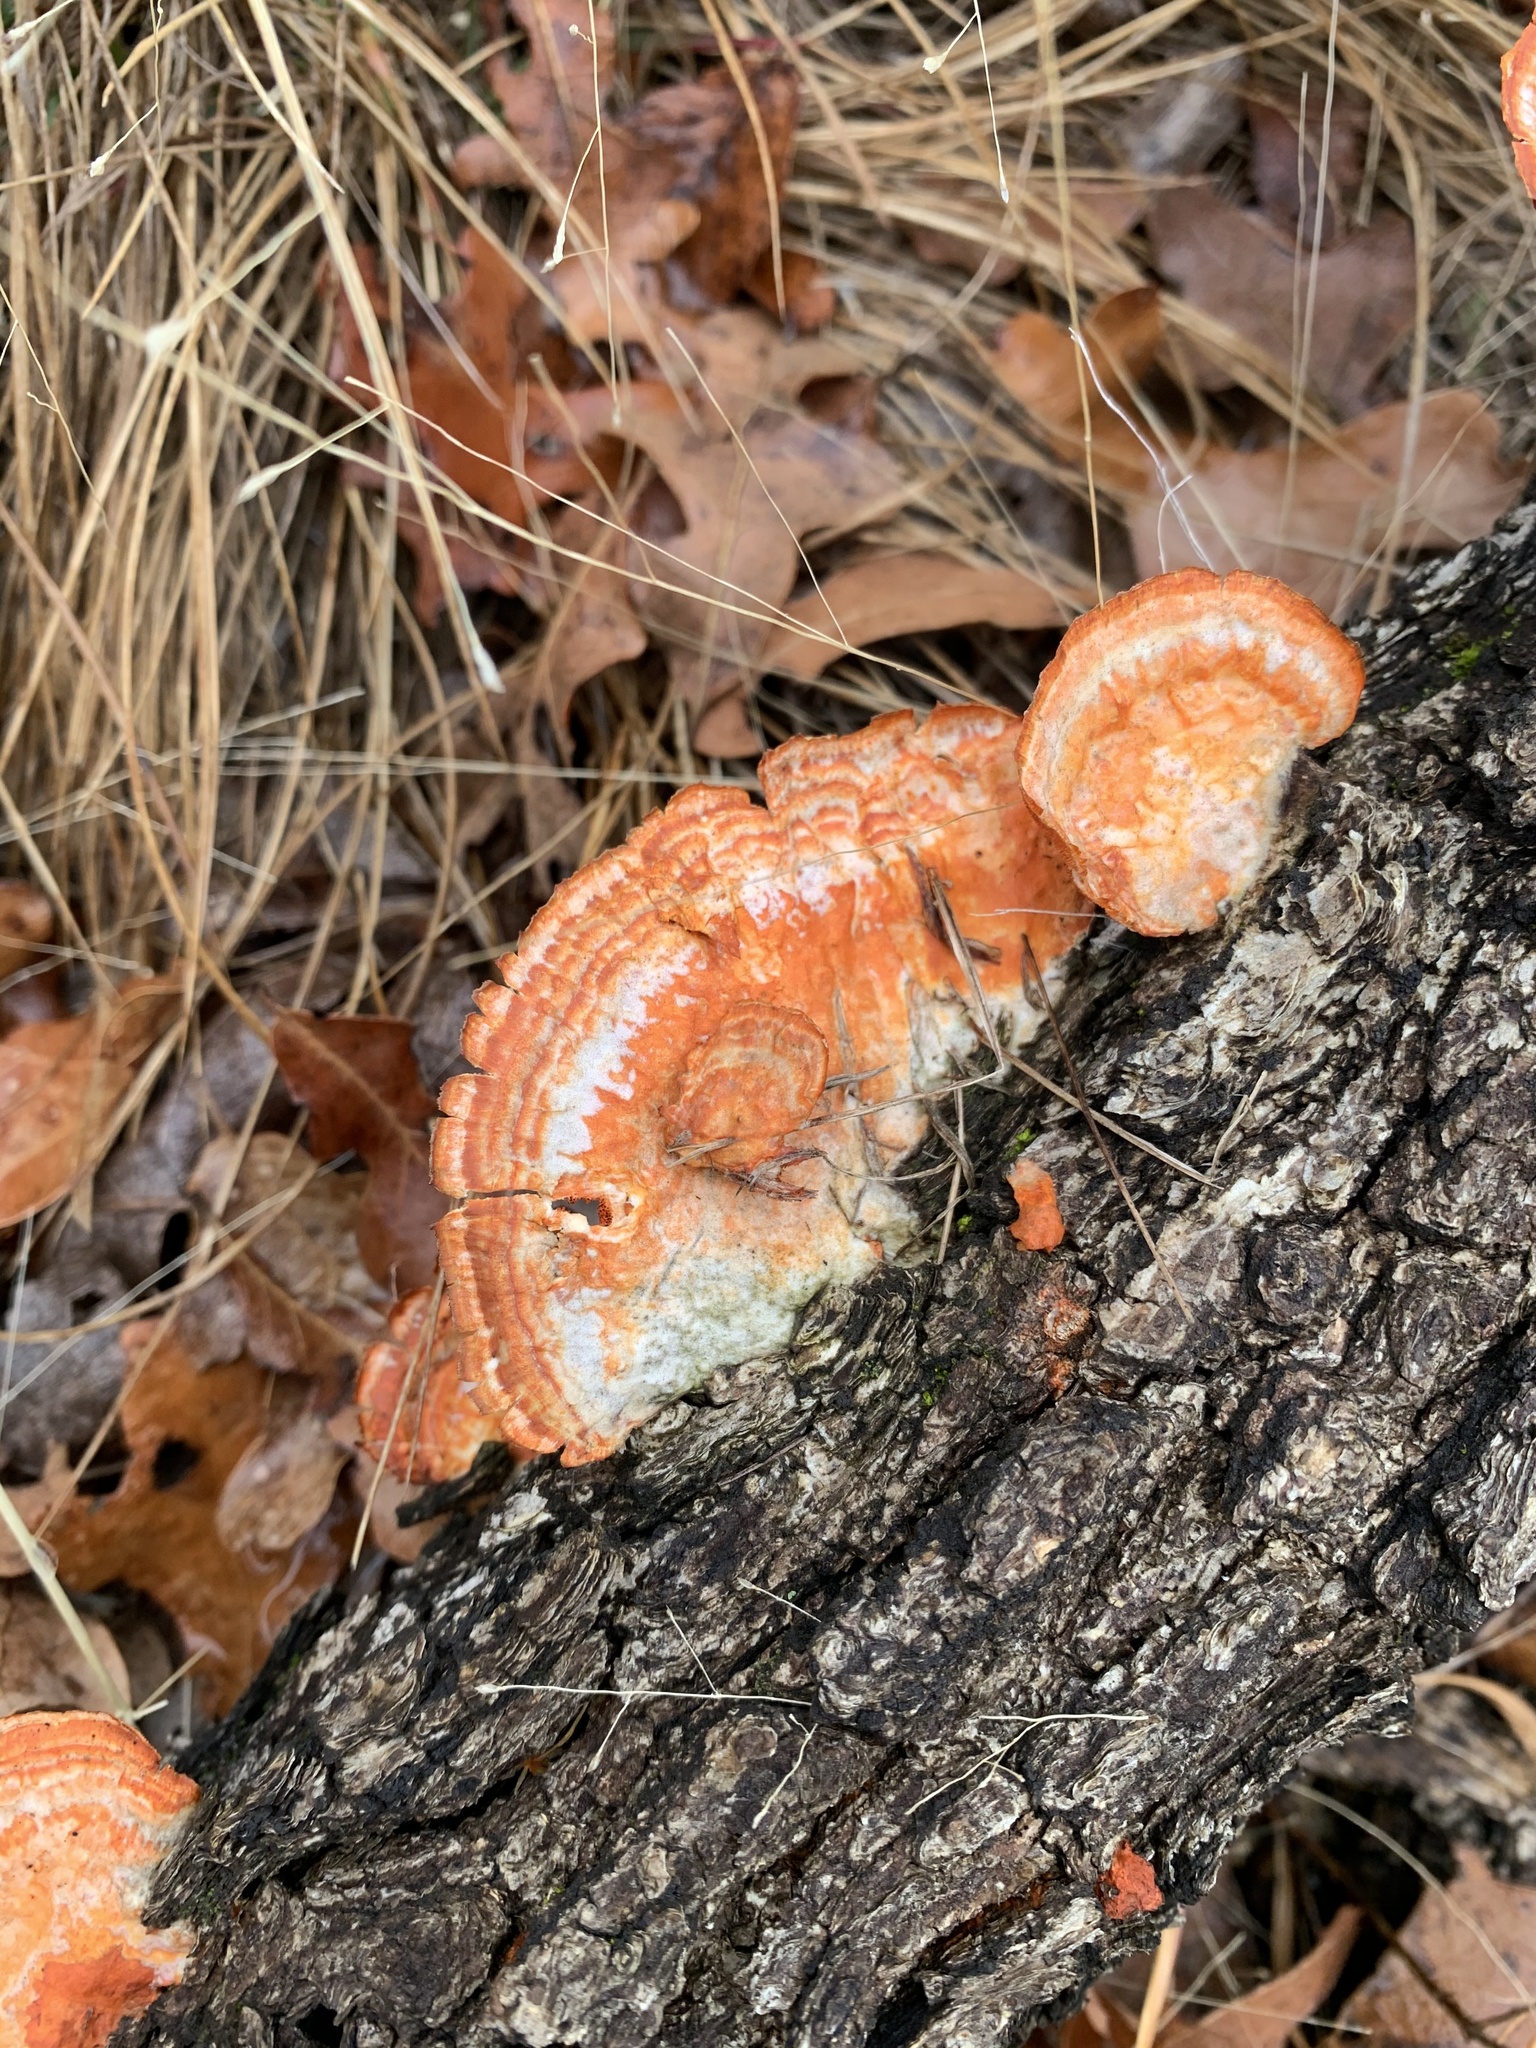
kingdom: Fungi
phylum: Basidiomycota
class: Agaricomycetes
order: Polyporales
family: Polyporaceae
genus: Trametes
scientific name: Trametes coccinea
